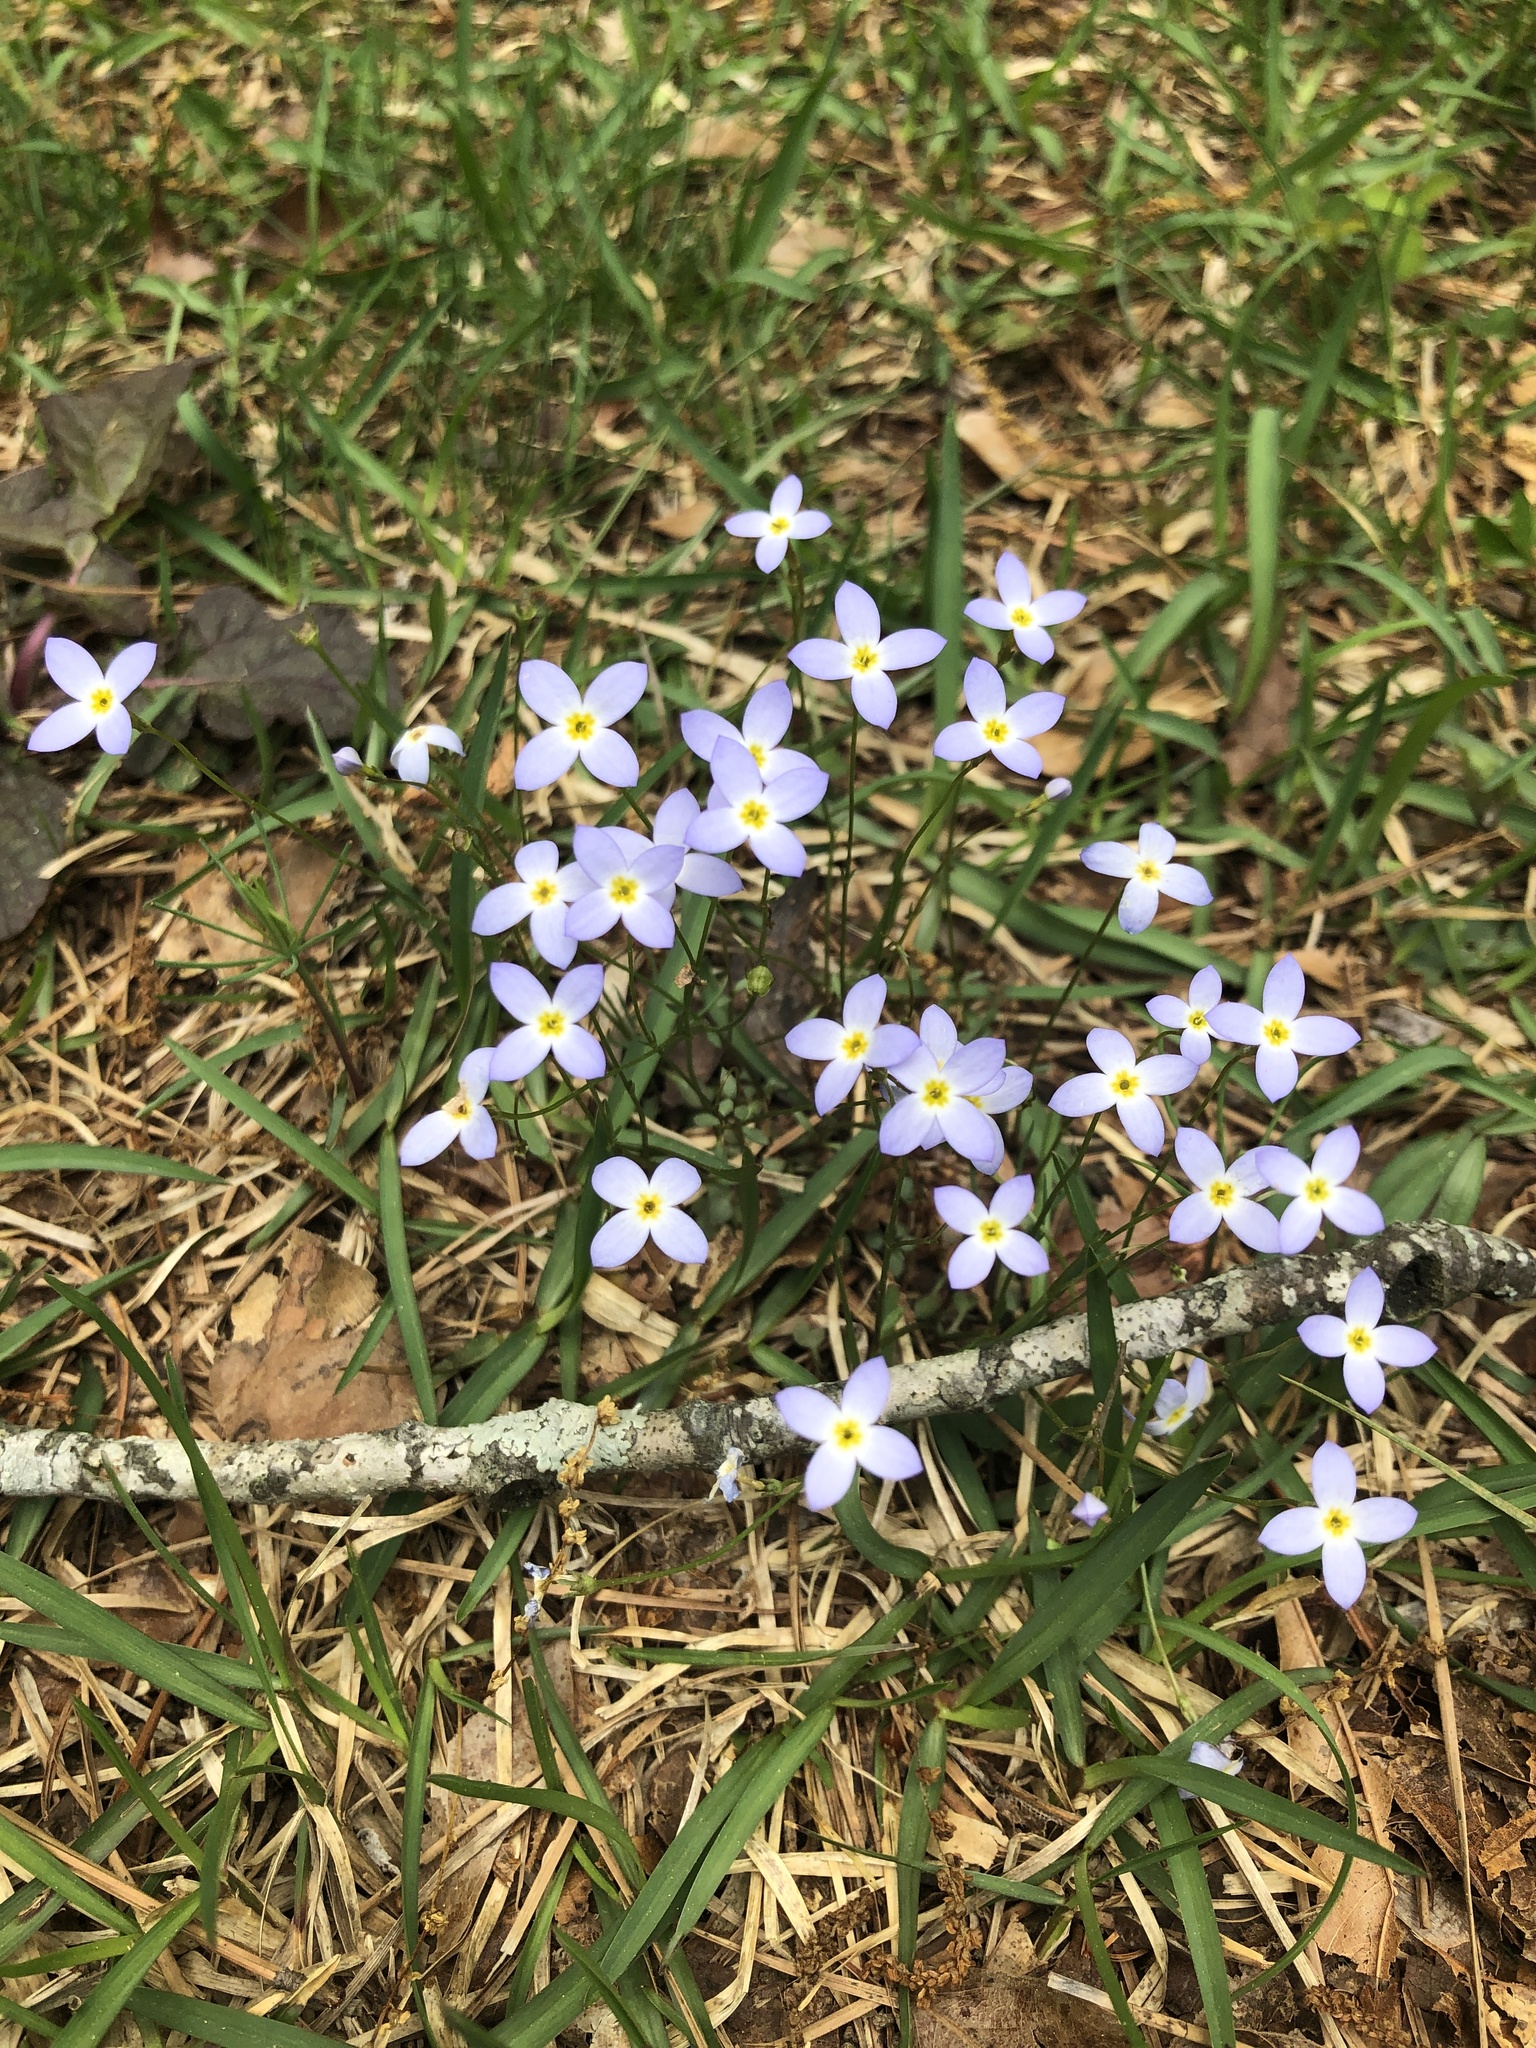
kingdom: Plantae
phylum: Tracheophyta
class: Magnoliopsida
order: Gentianales
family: Rubiaceae
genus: Houstonia
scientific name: Houstonia caerulea
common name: Bluets
